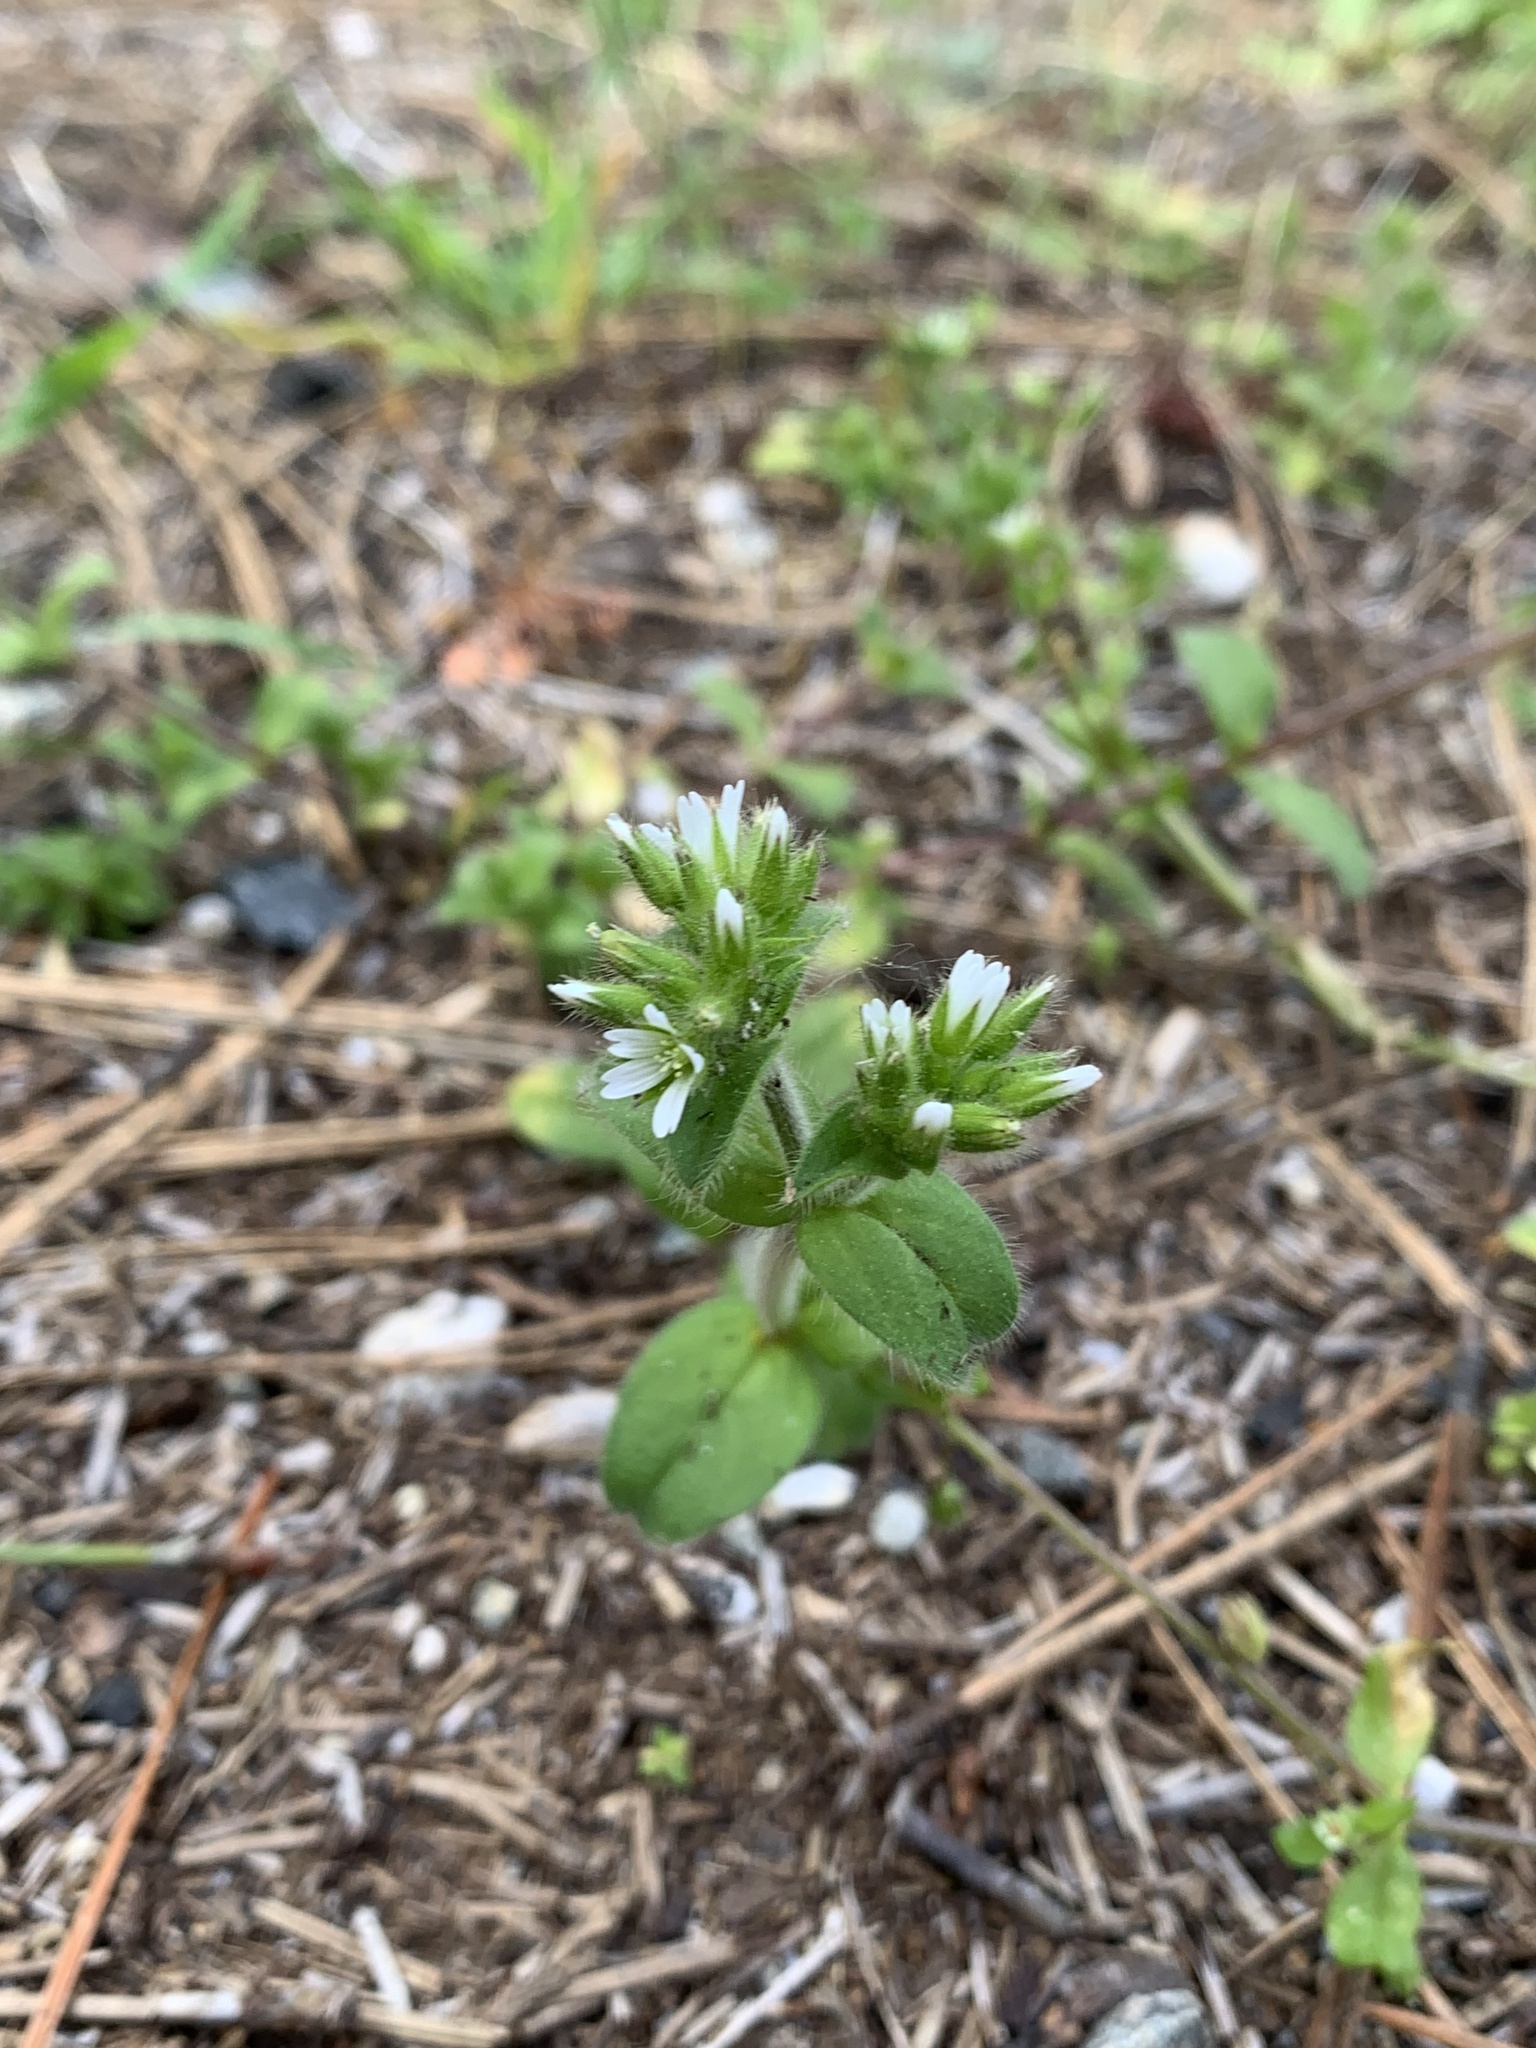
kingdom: Plantae
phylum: Tracheophyta
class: Magnoliopsida
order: Caryophyllales
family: Caryophyllaceae
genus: Cerastium
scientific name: Cerastium glomeratum
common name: Sticky chickweed
